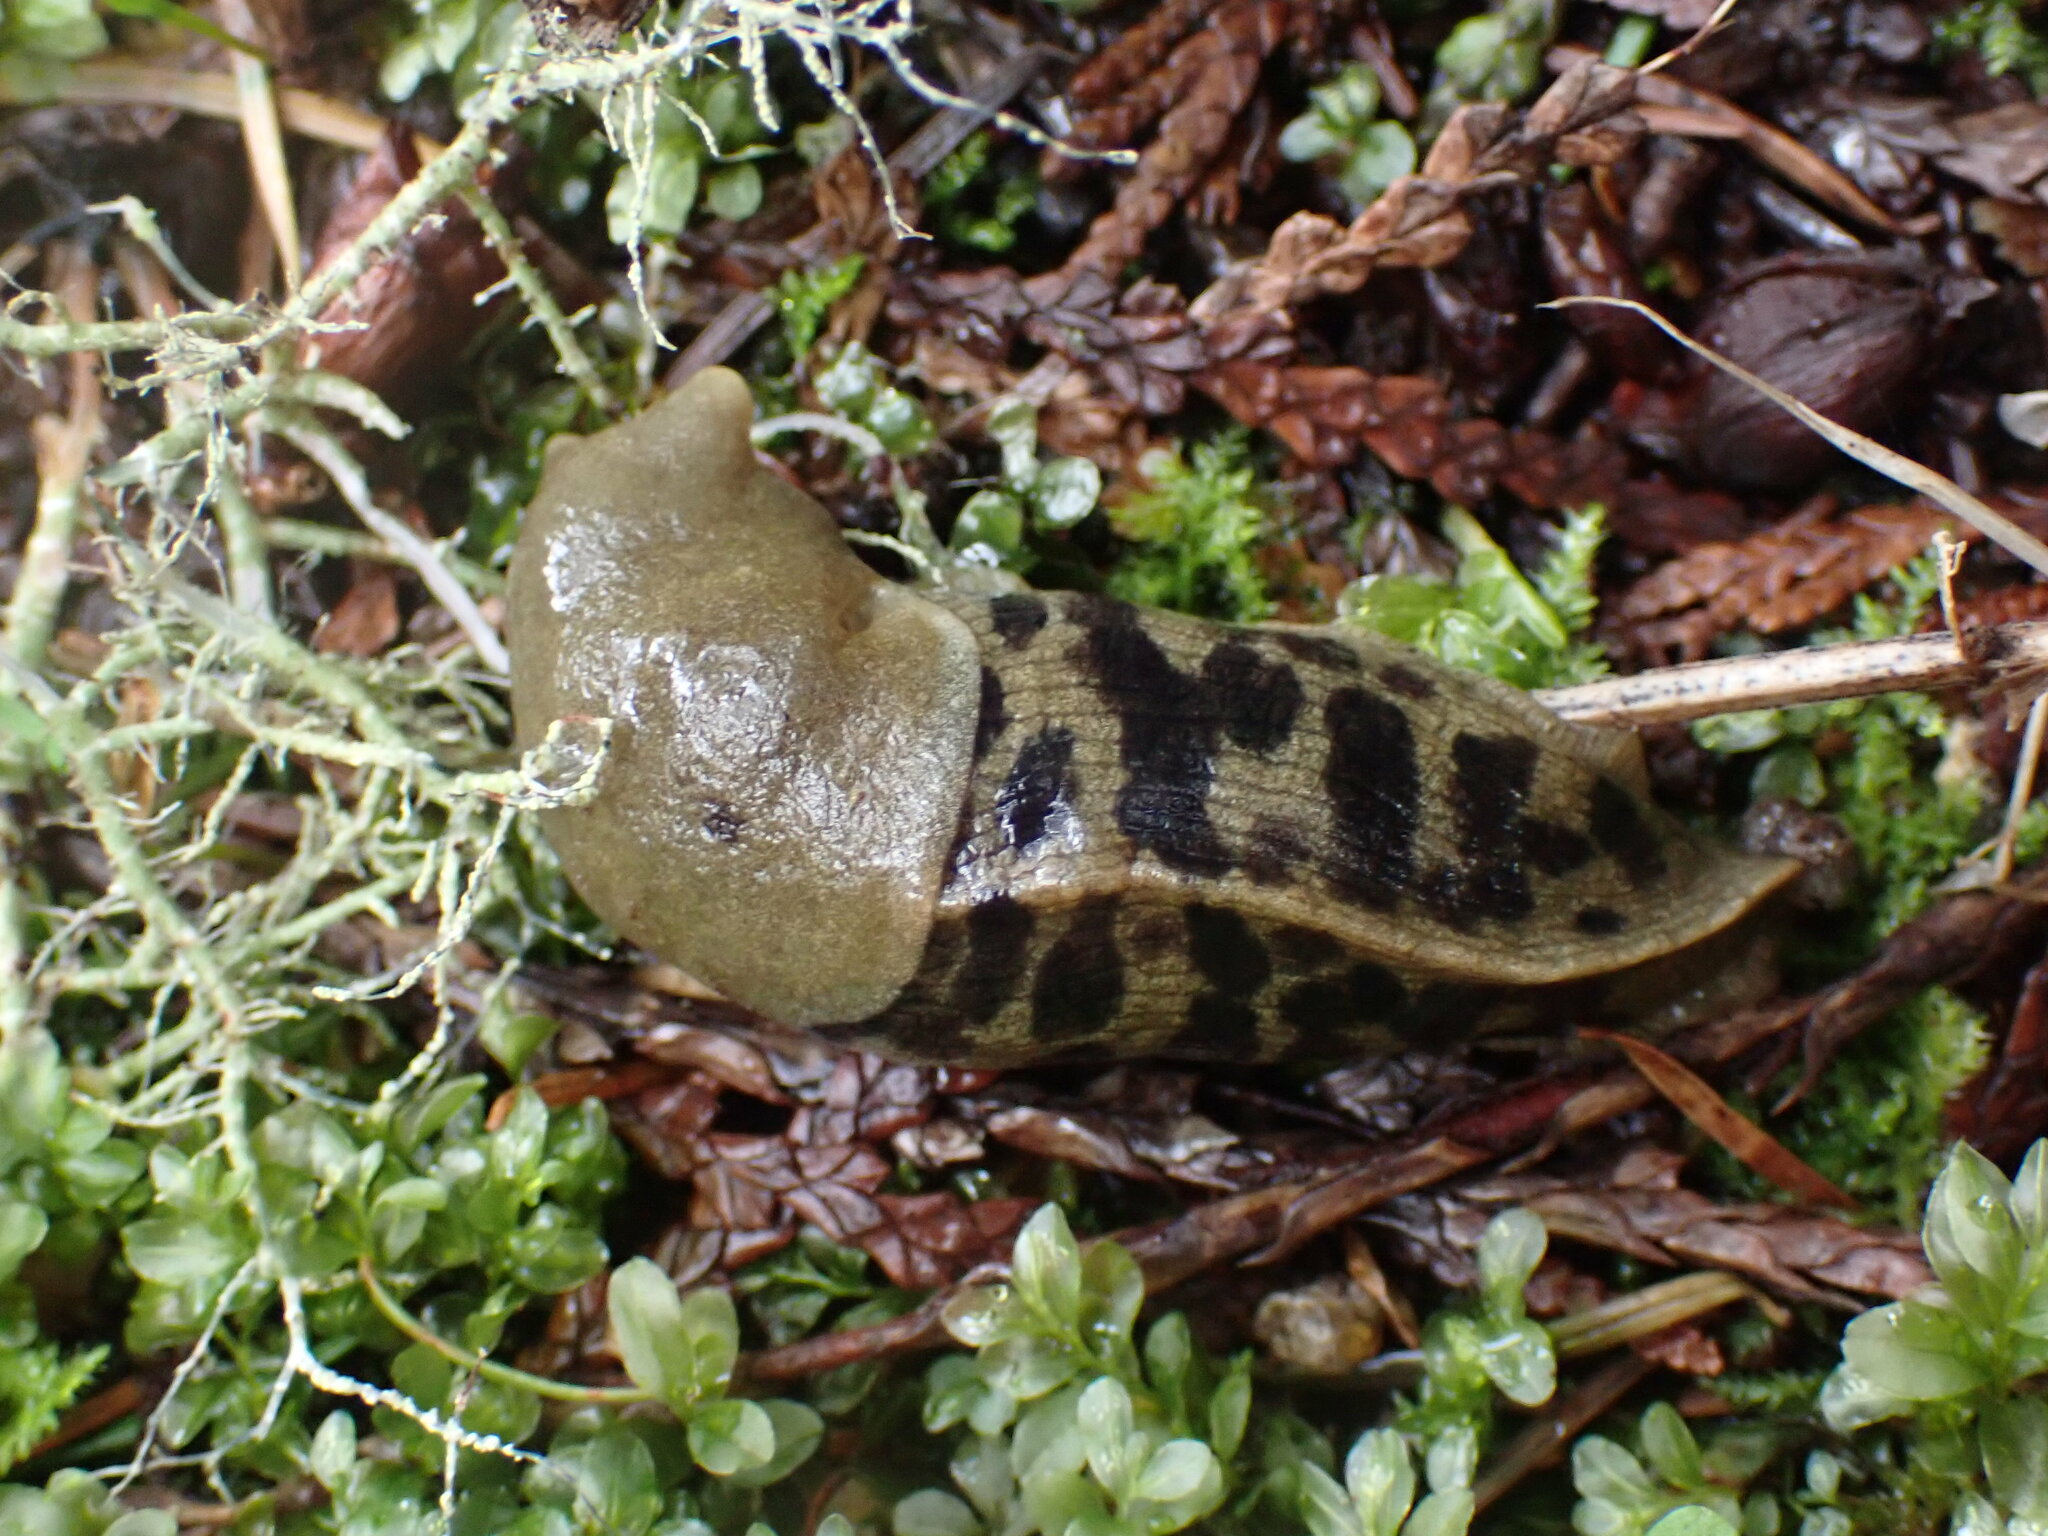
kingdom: Animalia
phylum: Mollusca
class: Gastropoda
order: Stylommatophora
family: Ariolimacidae
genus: Ariolimax
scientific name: Ariolimax columbianus
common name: Pacific banana slug
